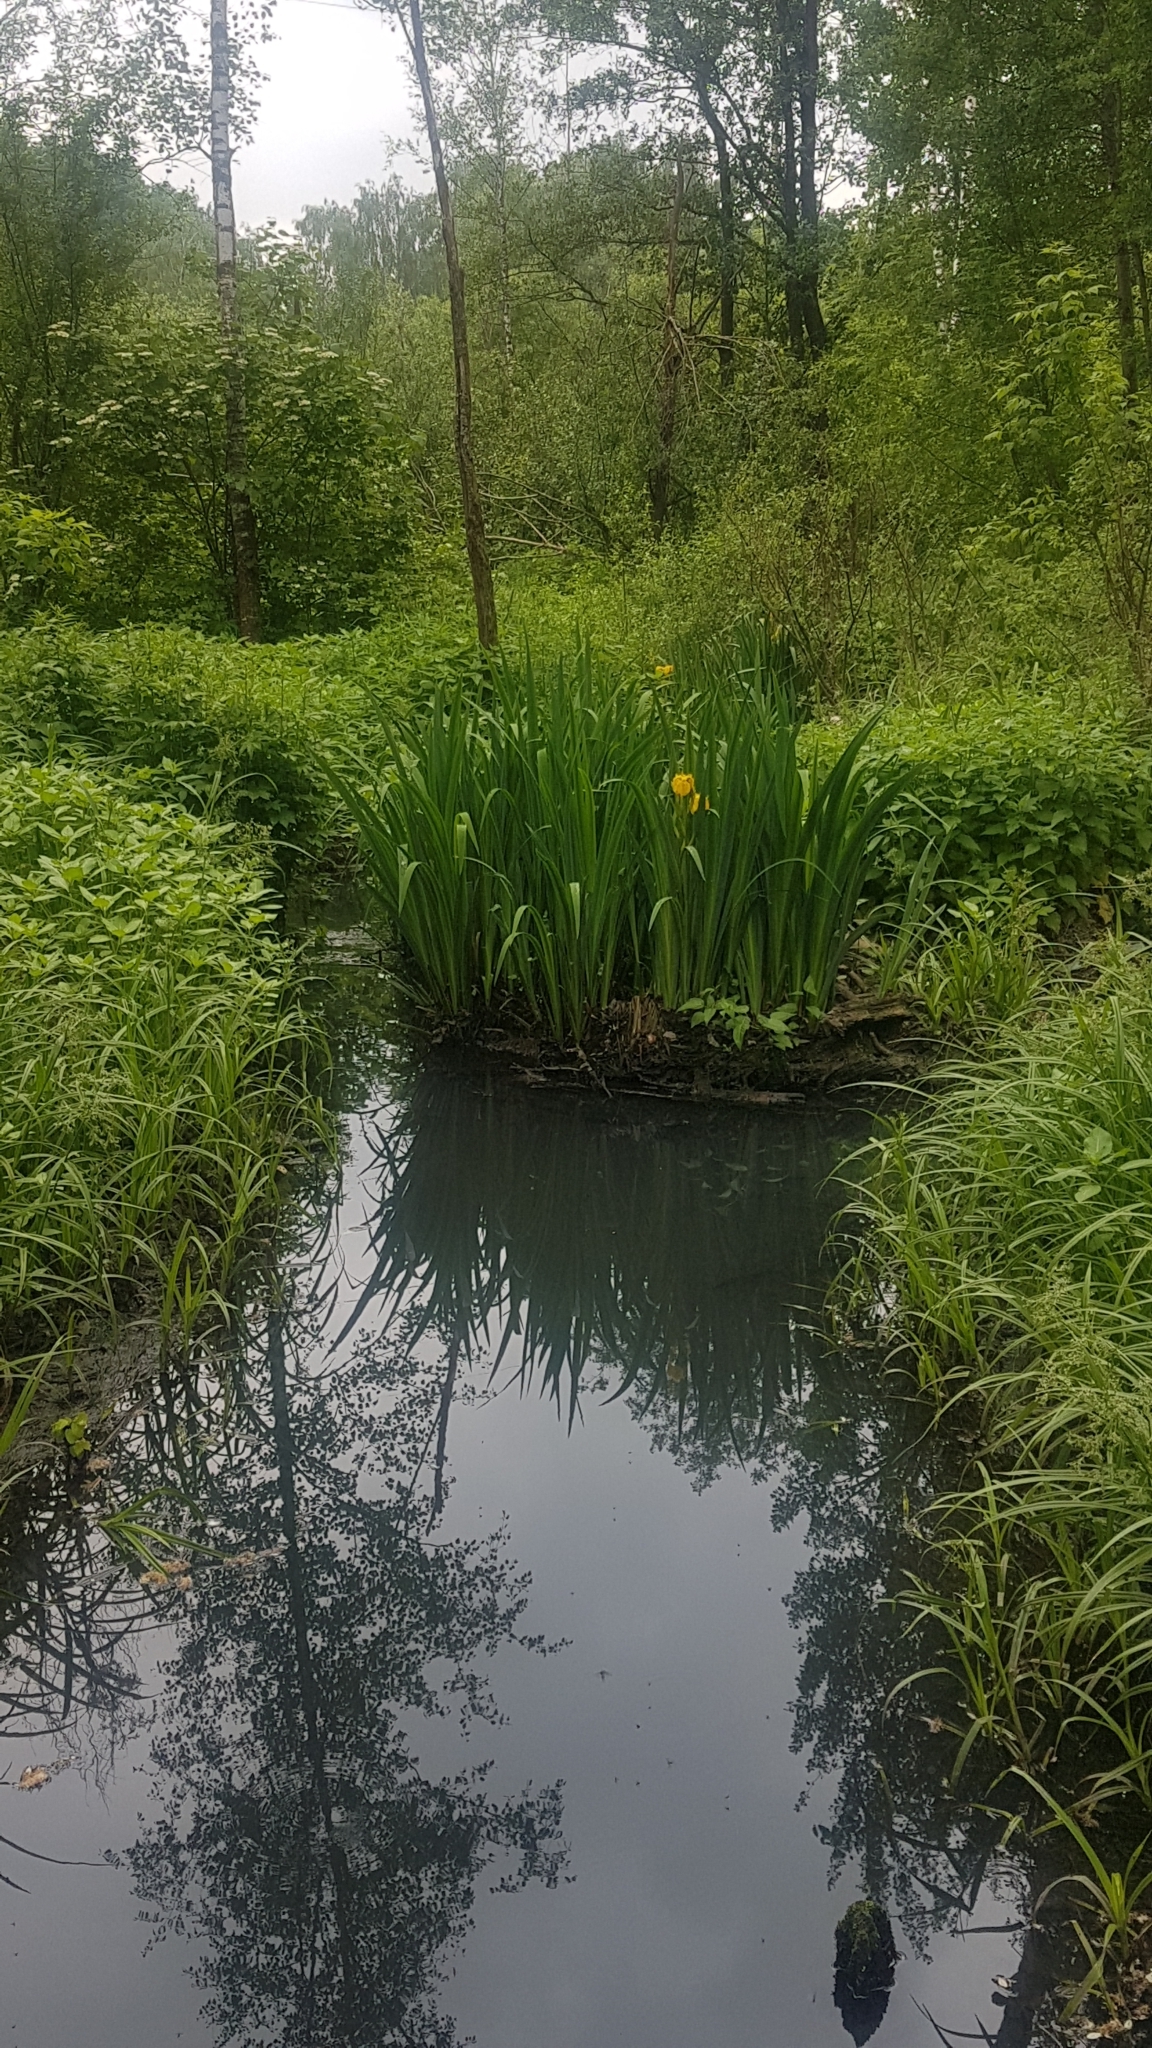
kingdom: Plantae
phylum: Tracheophyta
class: Liliopsida
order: Asparagales
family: Iridaceae
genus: Iris
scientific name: Iris pseudacorus
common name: Yellow flag
